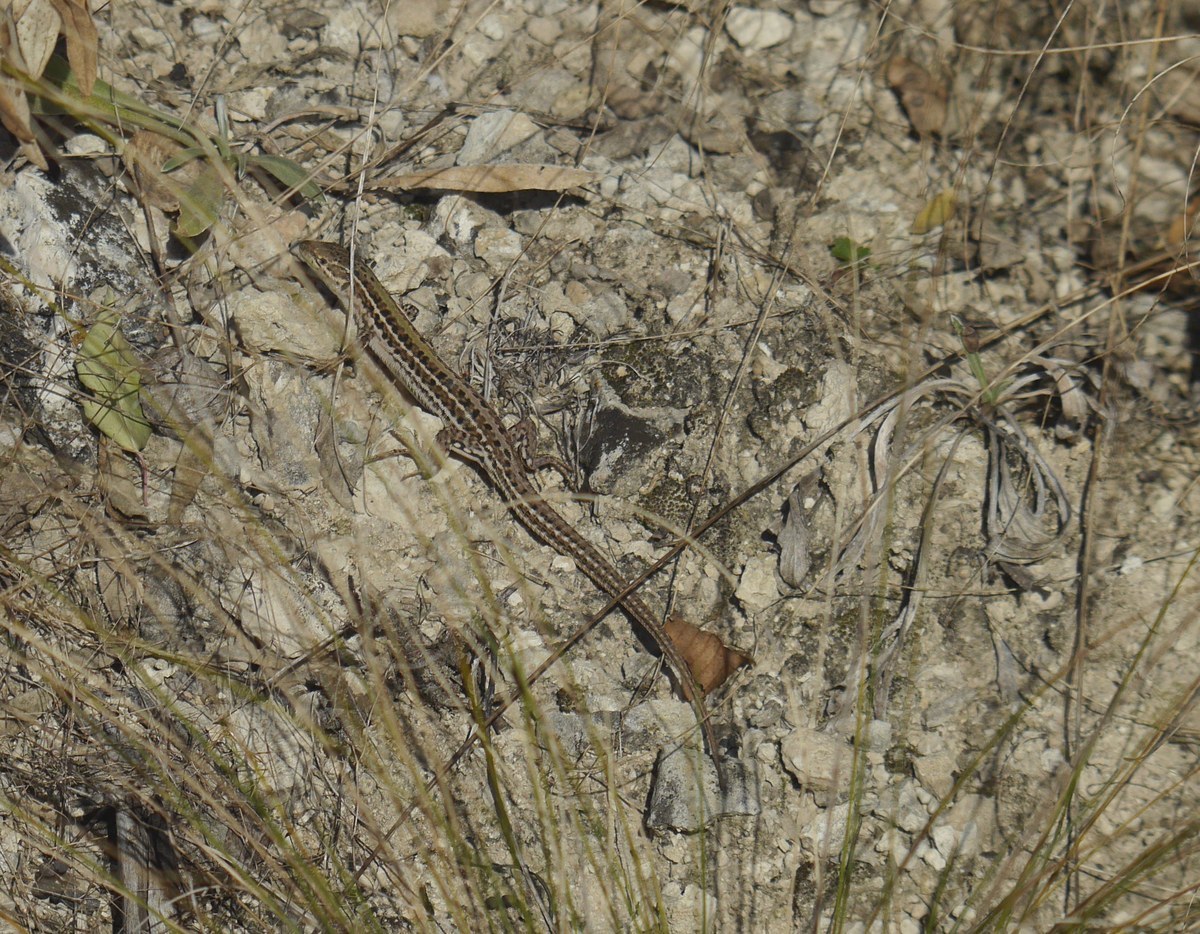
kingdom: Animalia
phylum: Chordata
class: Squamata
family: Lacertidae
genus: Podarcis
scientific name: Podarcis tauricus
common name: Balkan wall lizard
